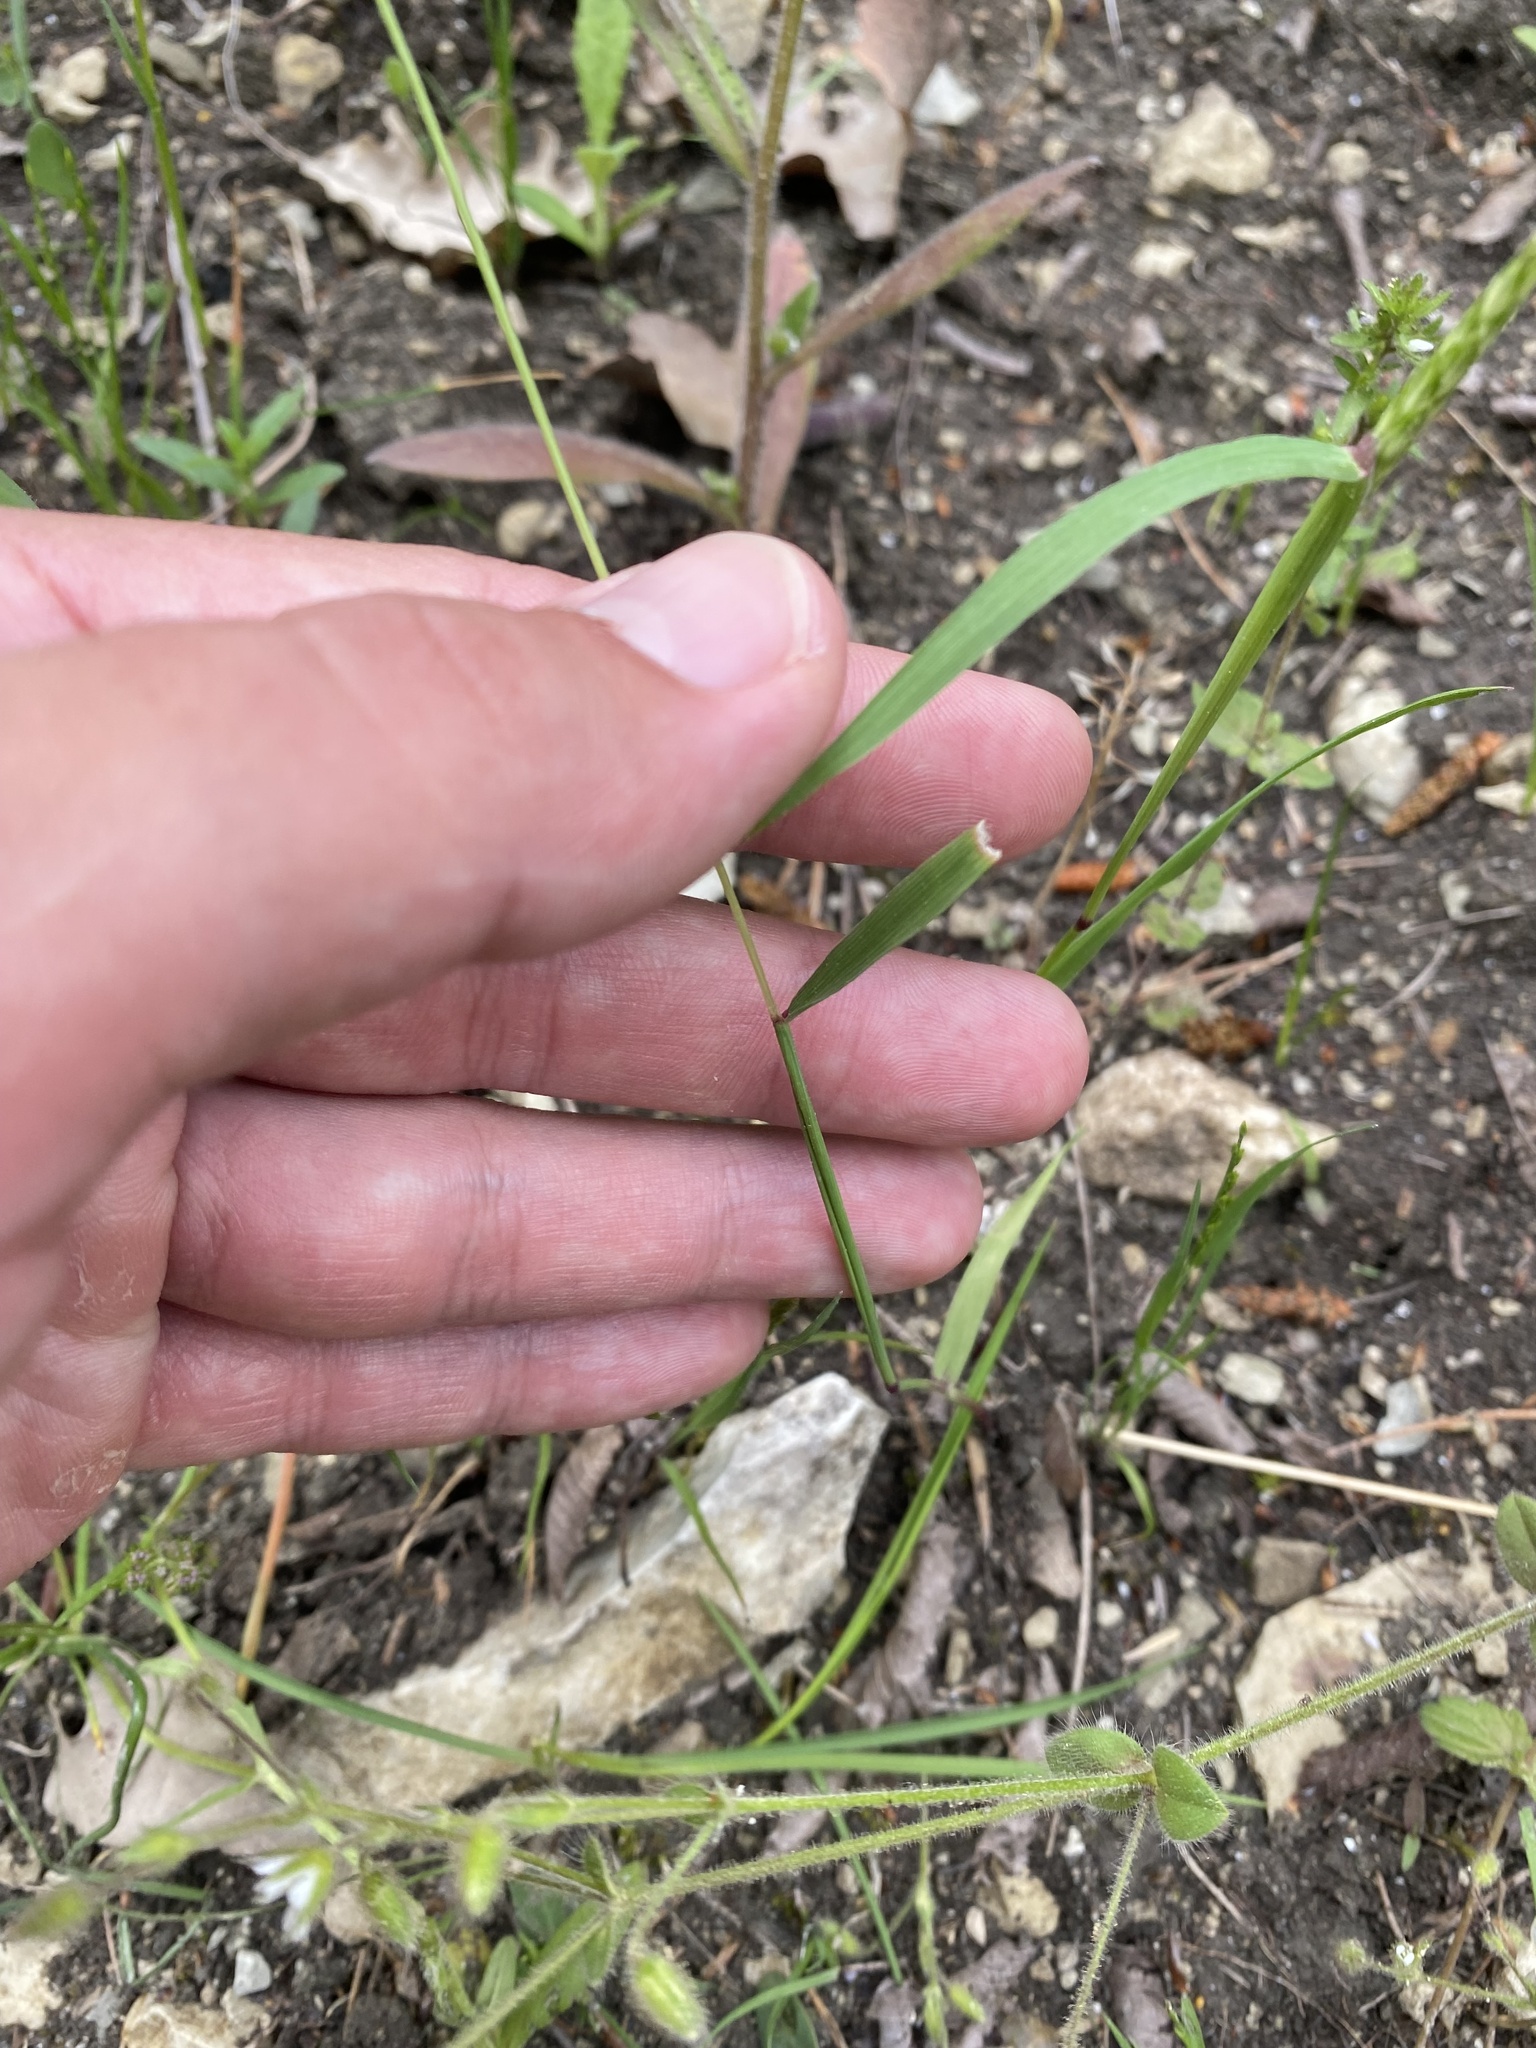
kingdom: Plantae
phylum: Tracheophyta
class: Liliopsida
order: Poales
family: Poaceae
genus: Alopecurus
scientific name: Alopecurus myosuroides
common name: Black-grass
